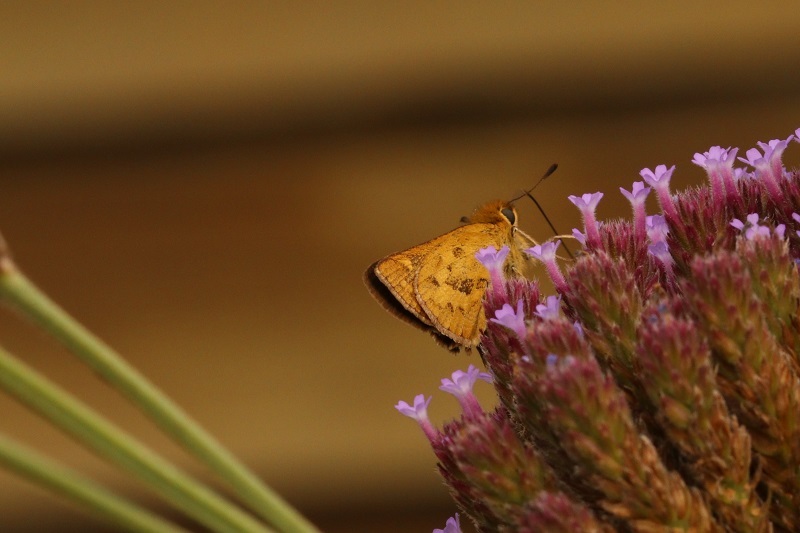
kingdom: Animalia
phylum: Arthropoda
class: Insecta
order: Hymenoptera
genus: Afrogenes
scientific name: Afrogenes
